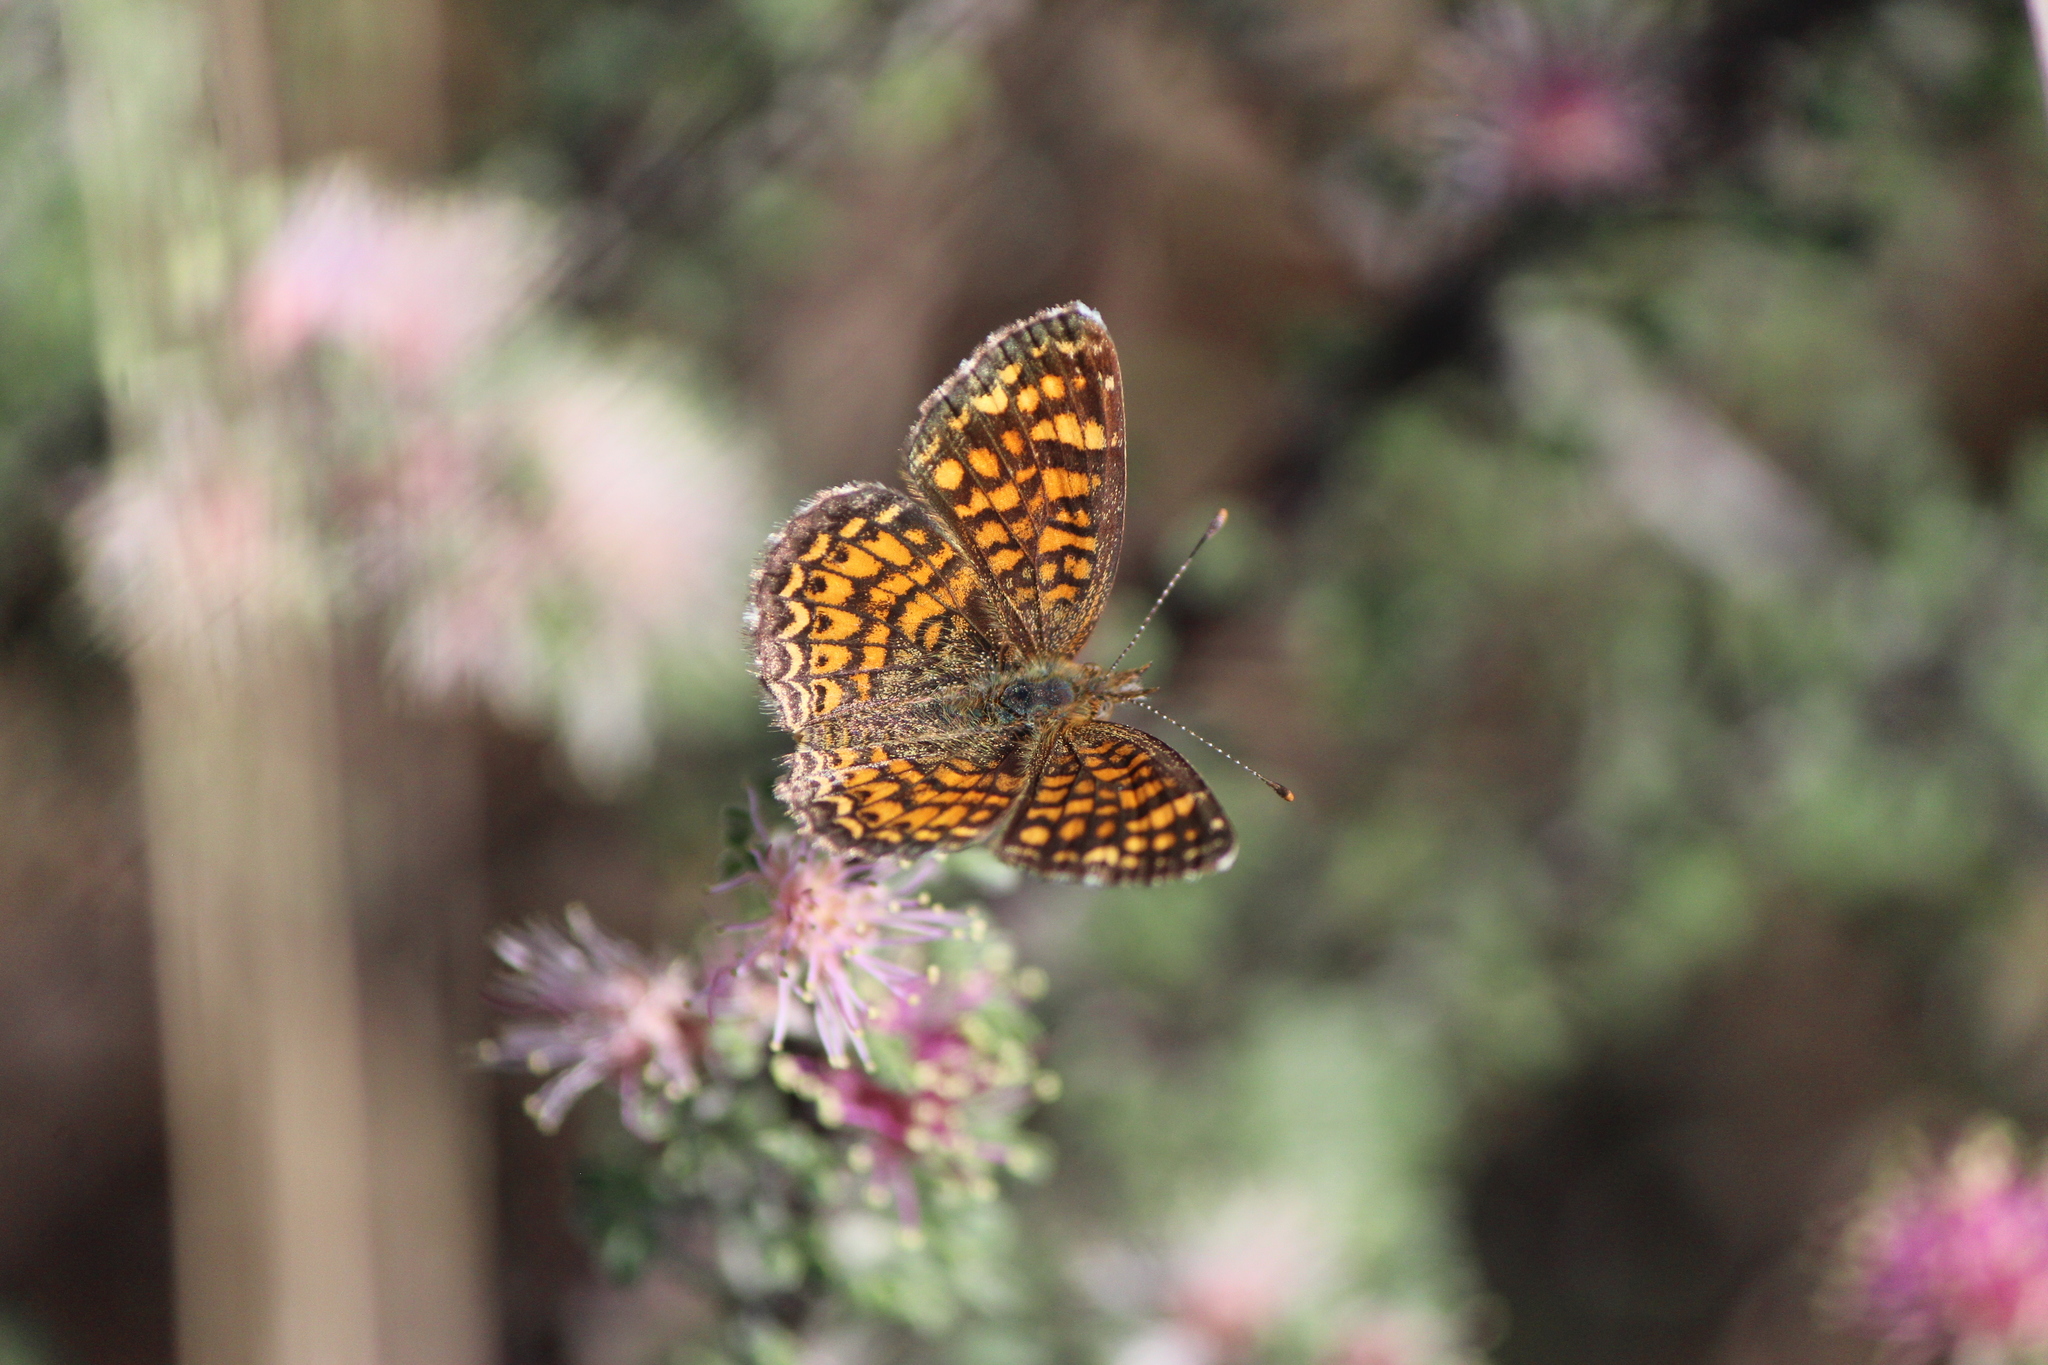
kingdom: Animalia
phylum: Arthropoda
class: Insecta
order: Lepidoptera
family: Nymphalidae
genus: Phyciodes
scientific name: Phyciodes vesta
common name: Vesta crescent
